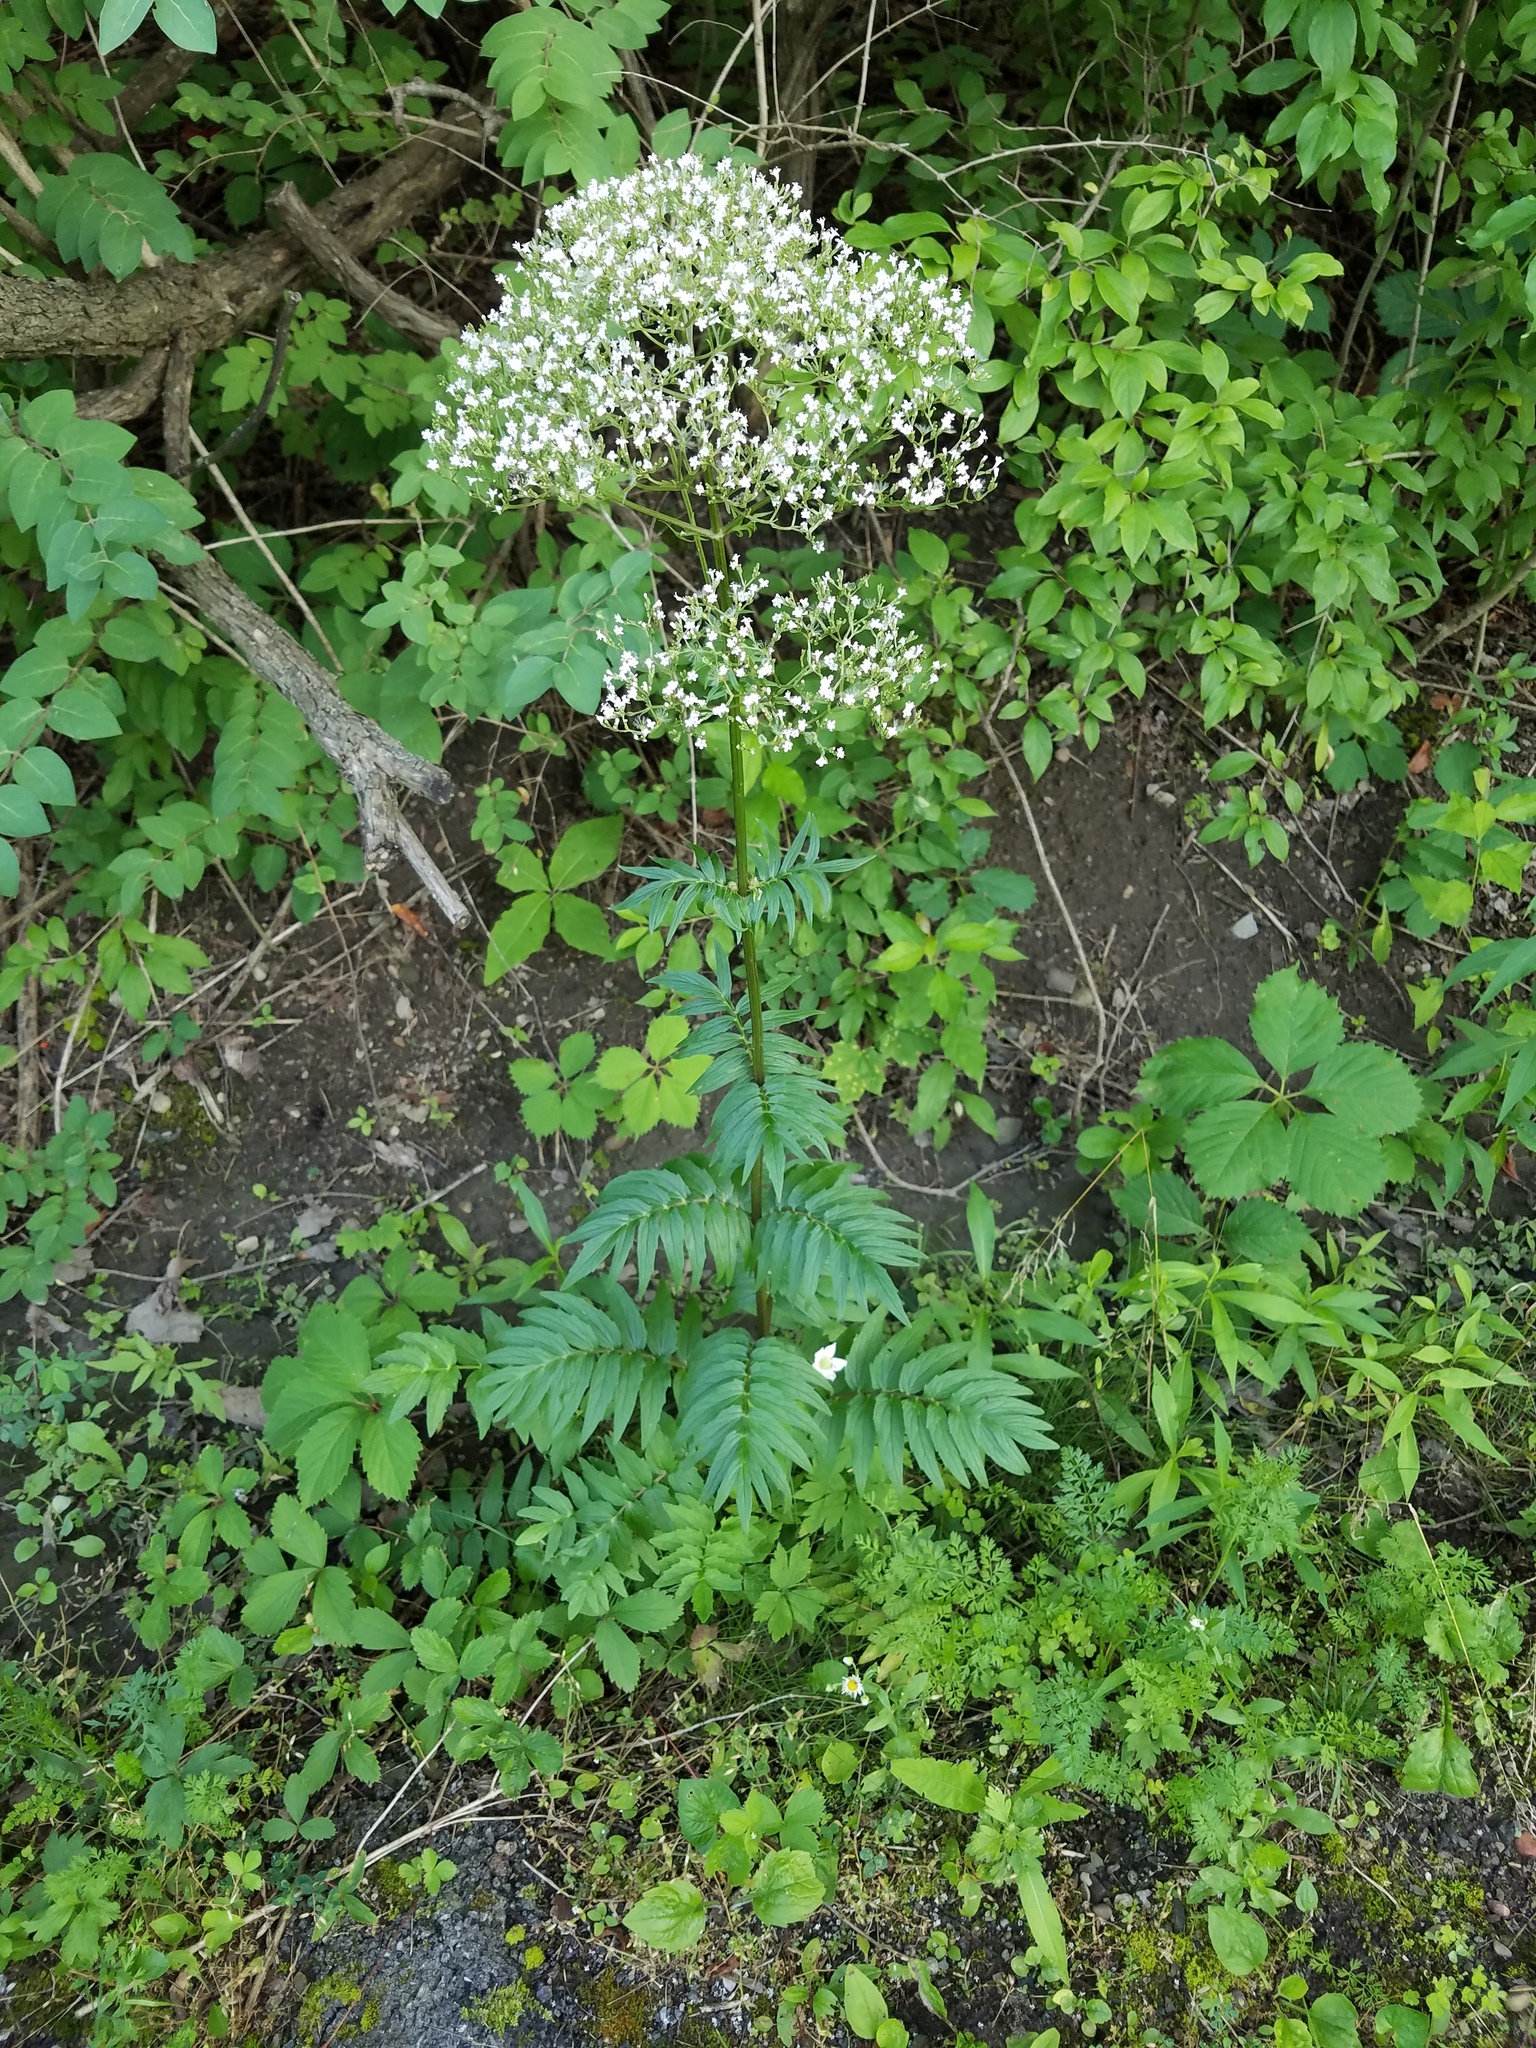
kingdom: Plantae
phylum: Tracheophyta
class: Magnoliopsida
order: Dipsacales
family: Caprifoliaceae
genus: Valeriana
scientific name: Valeriana officinalis
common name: Common valerian
